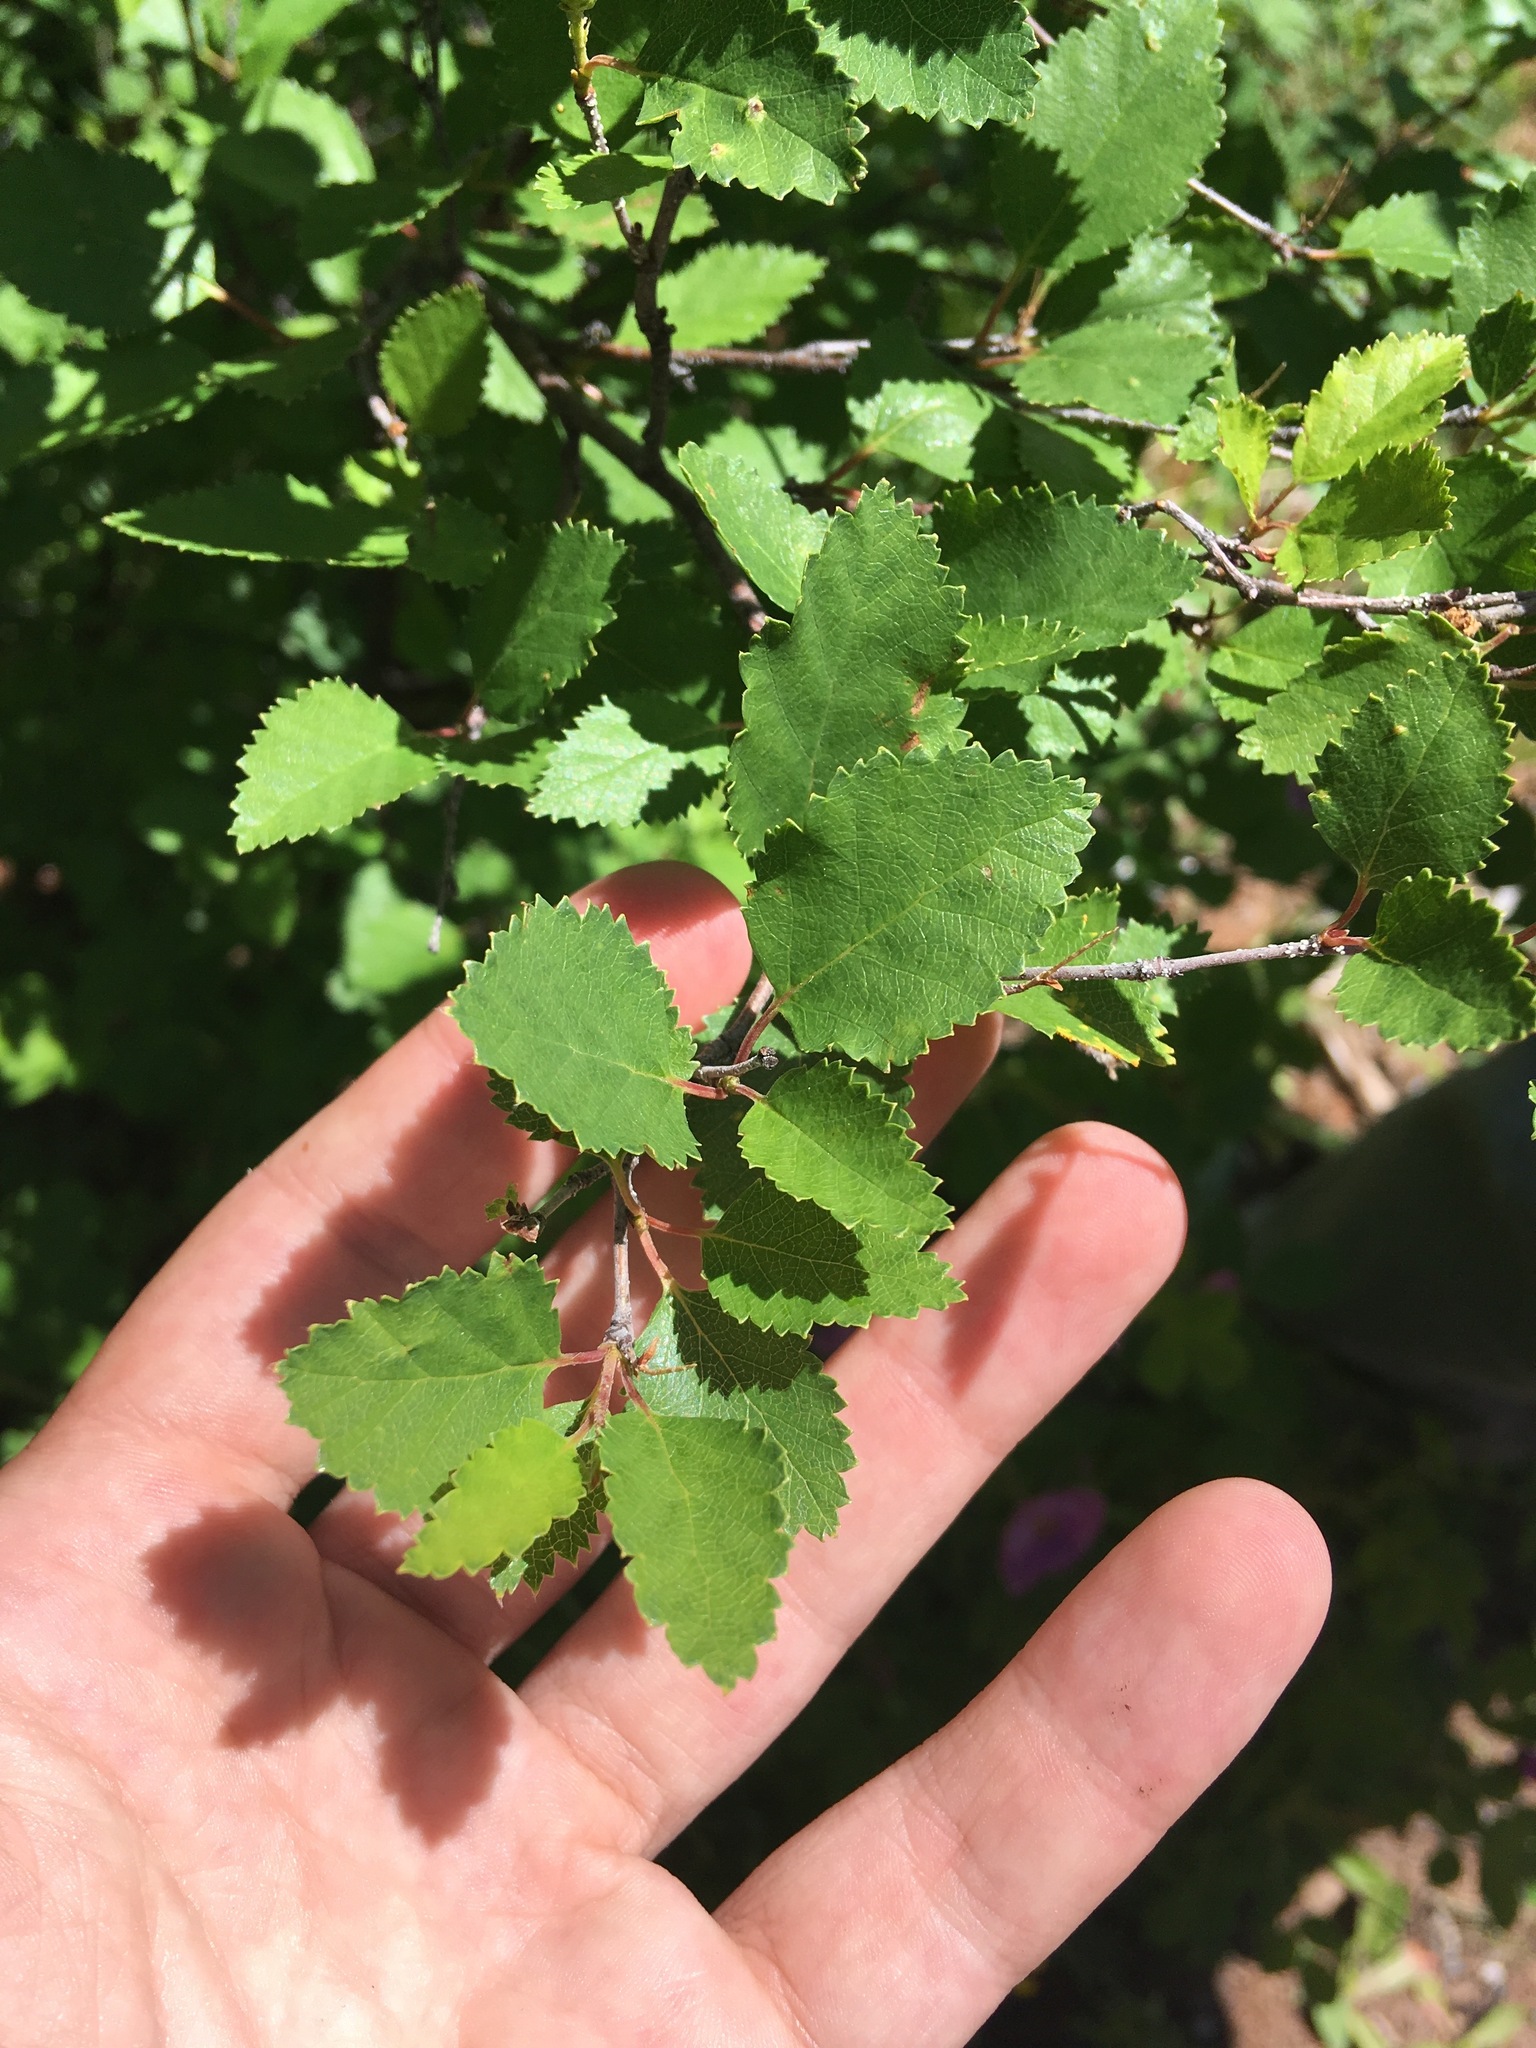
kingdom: Plantae
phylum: Tracheophyta
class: Magnoliopsida
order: Fagales
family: Betulaceae
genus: Betula
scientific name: Betula fruticosa
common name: Japanese bog birch
